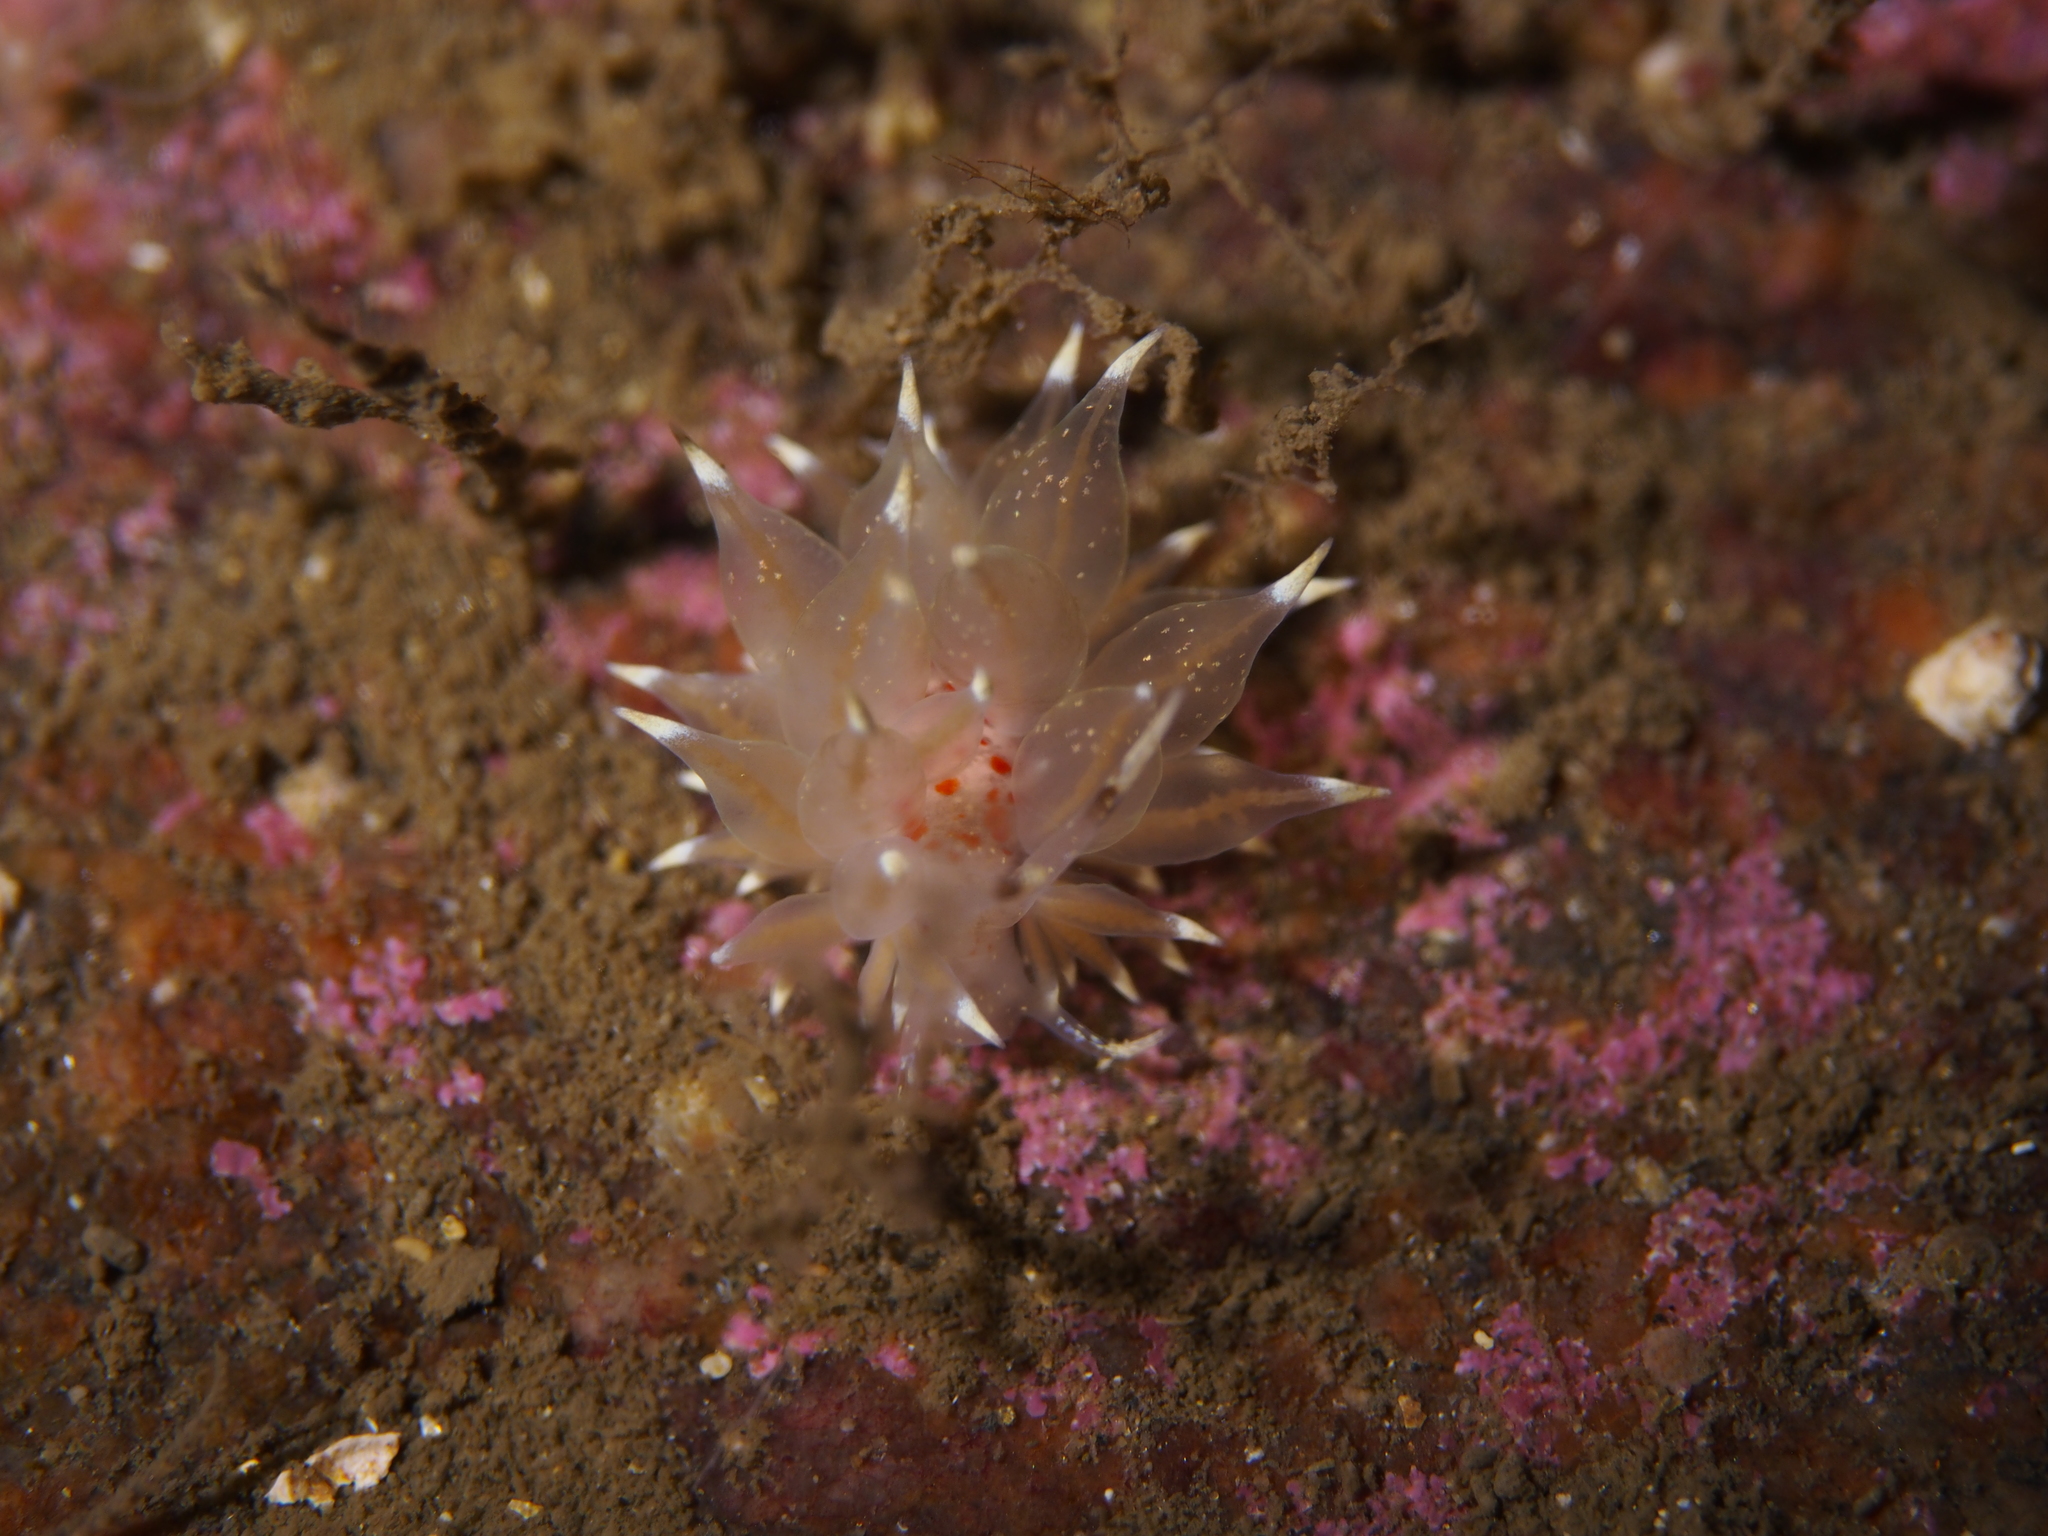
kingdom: Animalia
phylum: Mollusca
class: Gastropoda
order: Nudibranchia
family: Eubranchidae
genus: Amphorina
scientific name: Amphorina linensis
